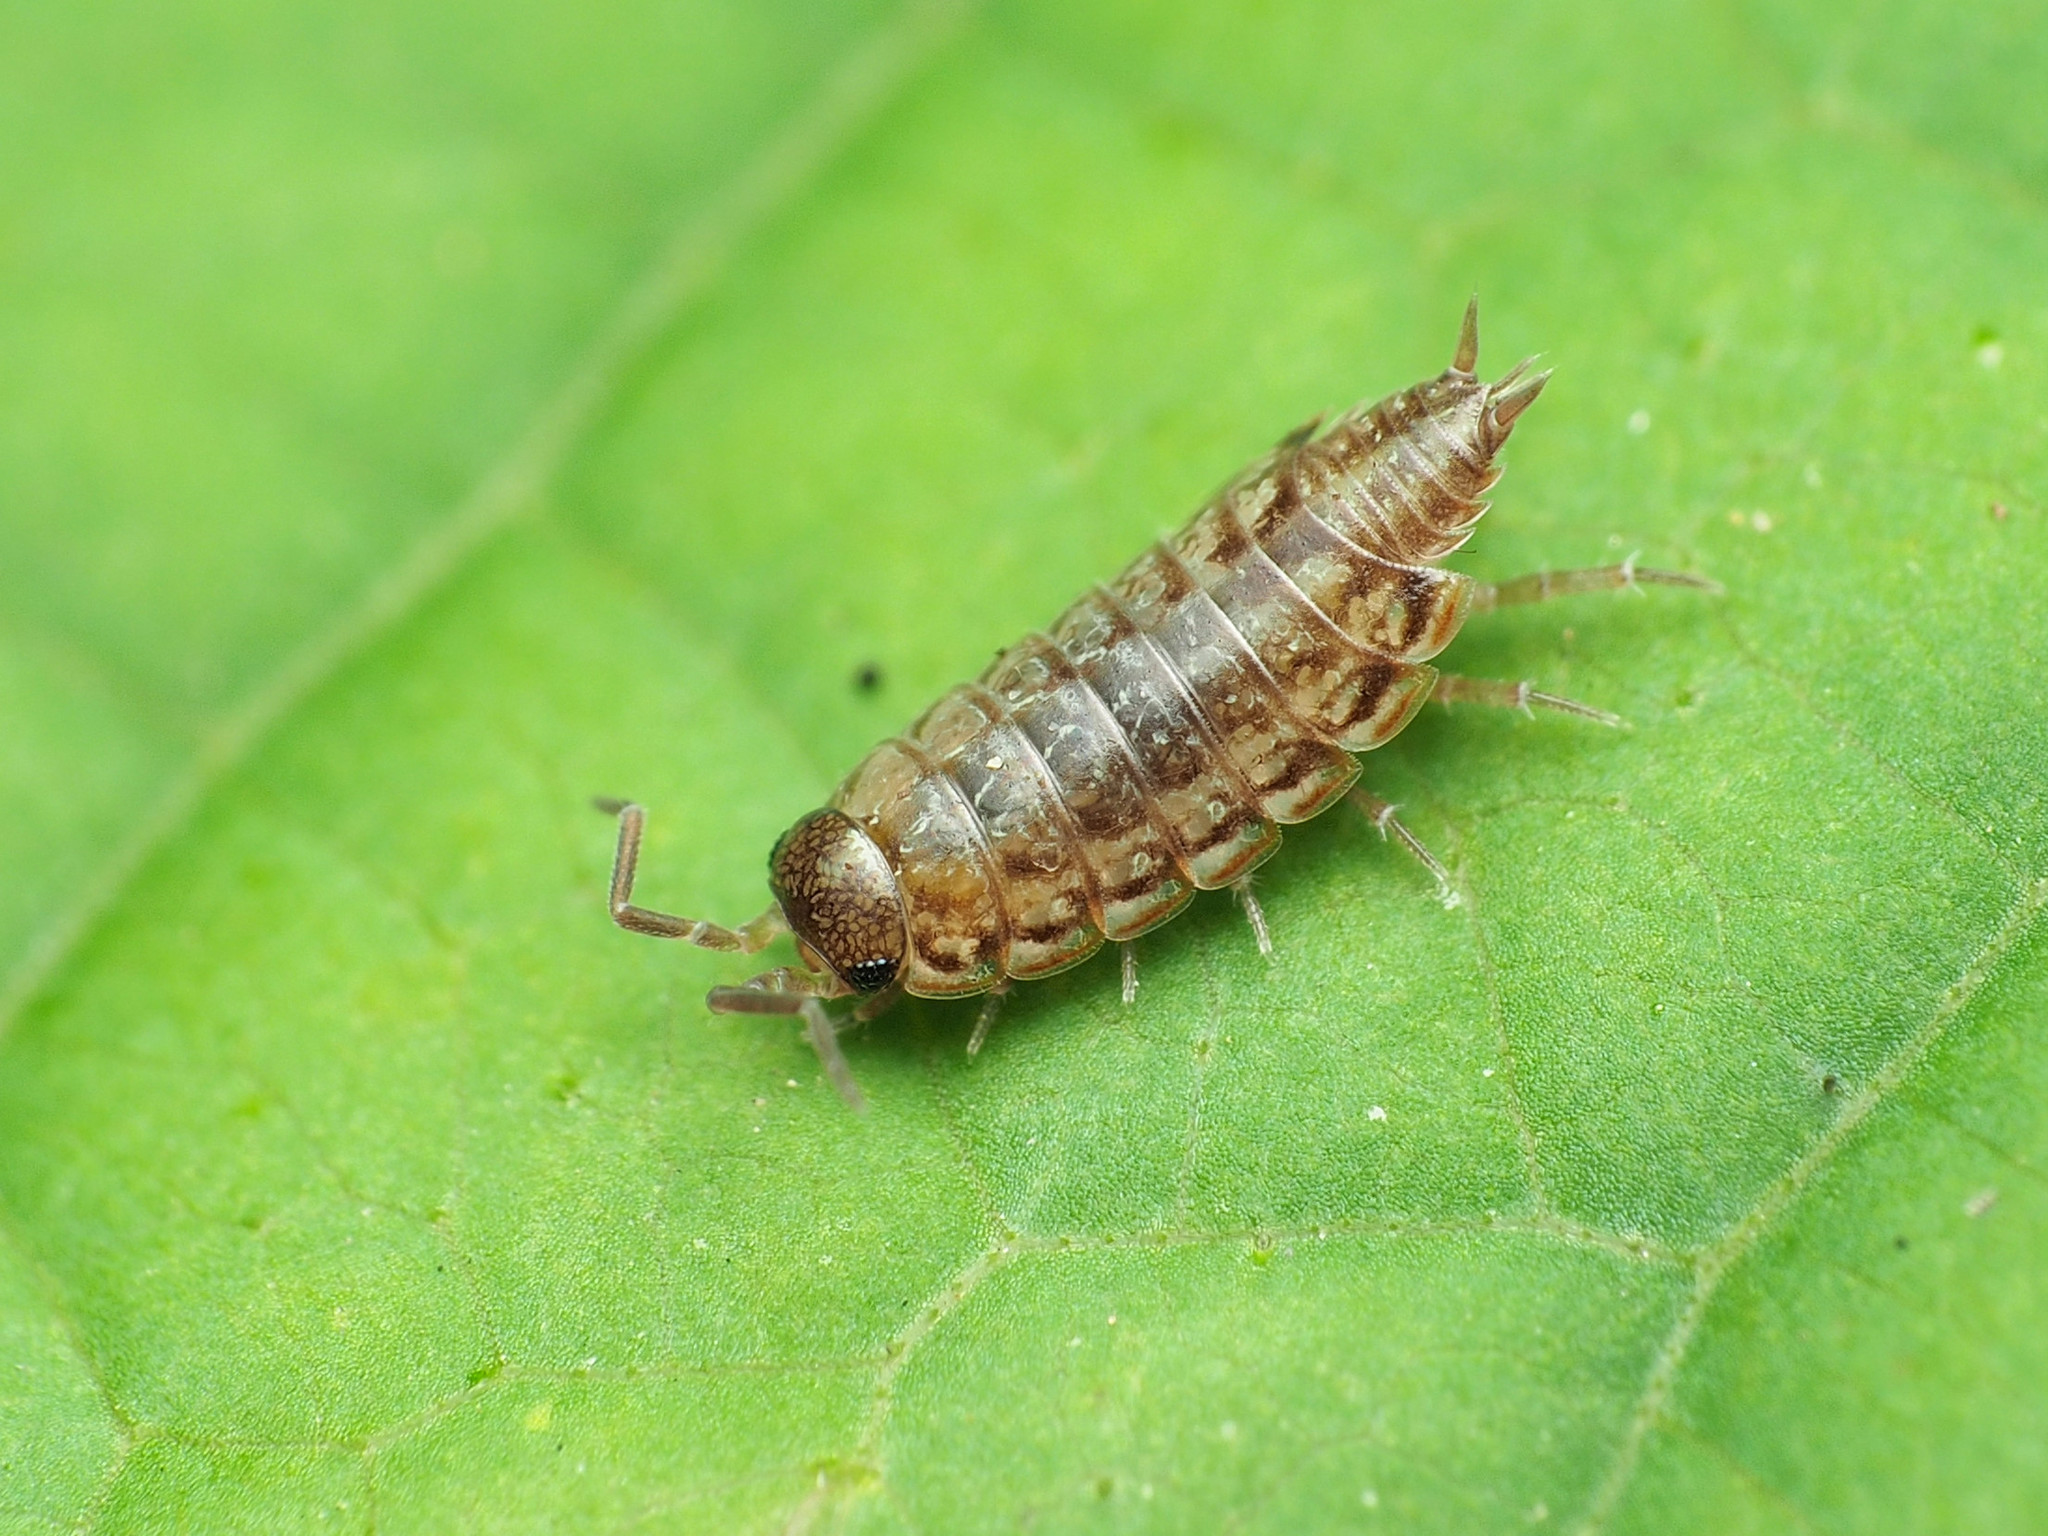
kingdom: Animalia
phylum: Arthropoda
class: Malacostraca
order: Isopoda
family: Philosciidae
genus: Philoscia
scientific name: Philoscia muscorum
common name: Common striped woodlouse
